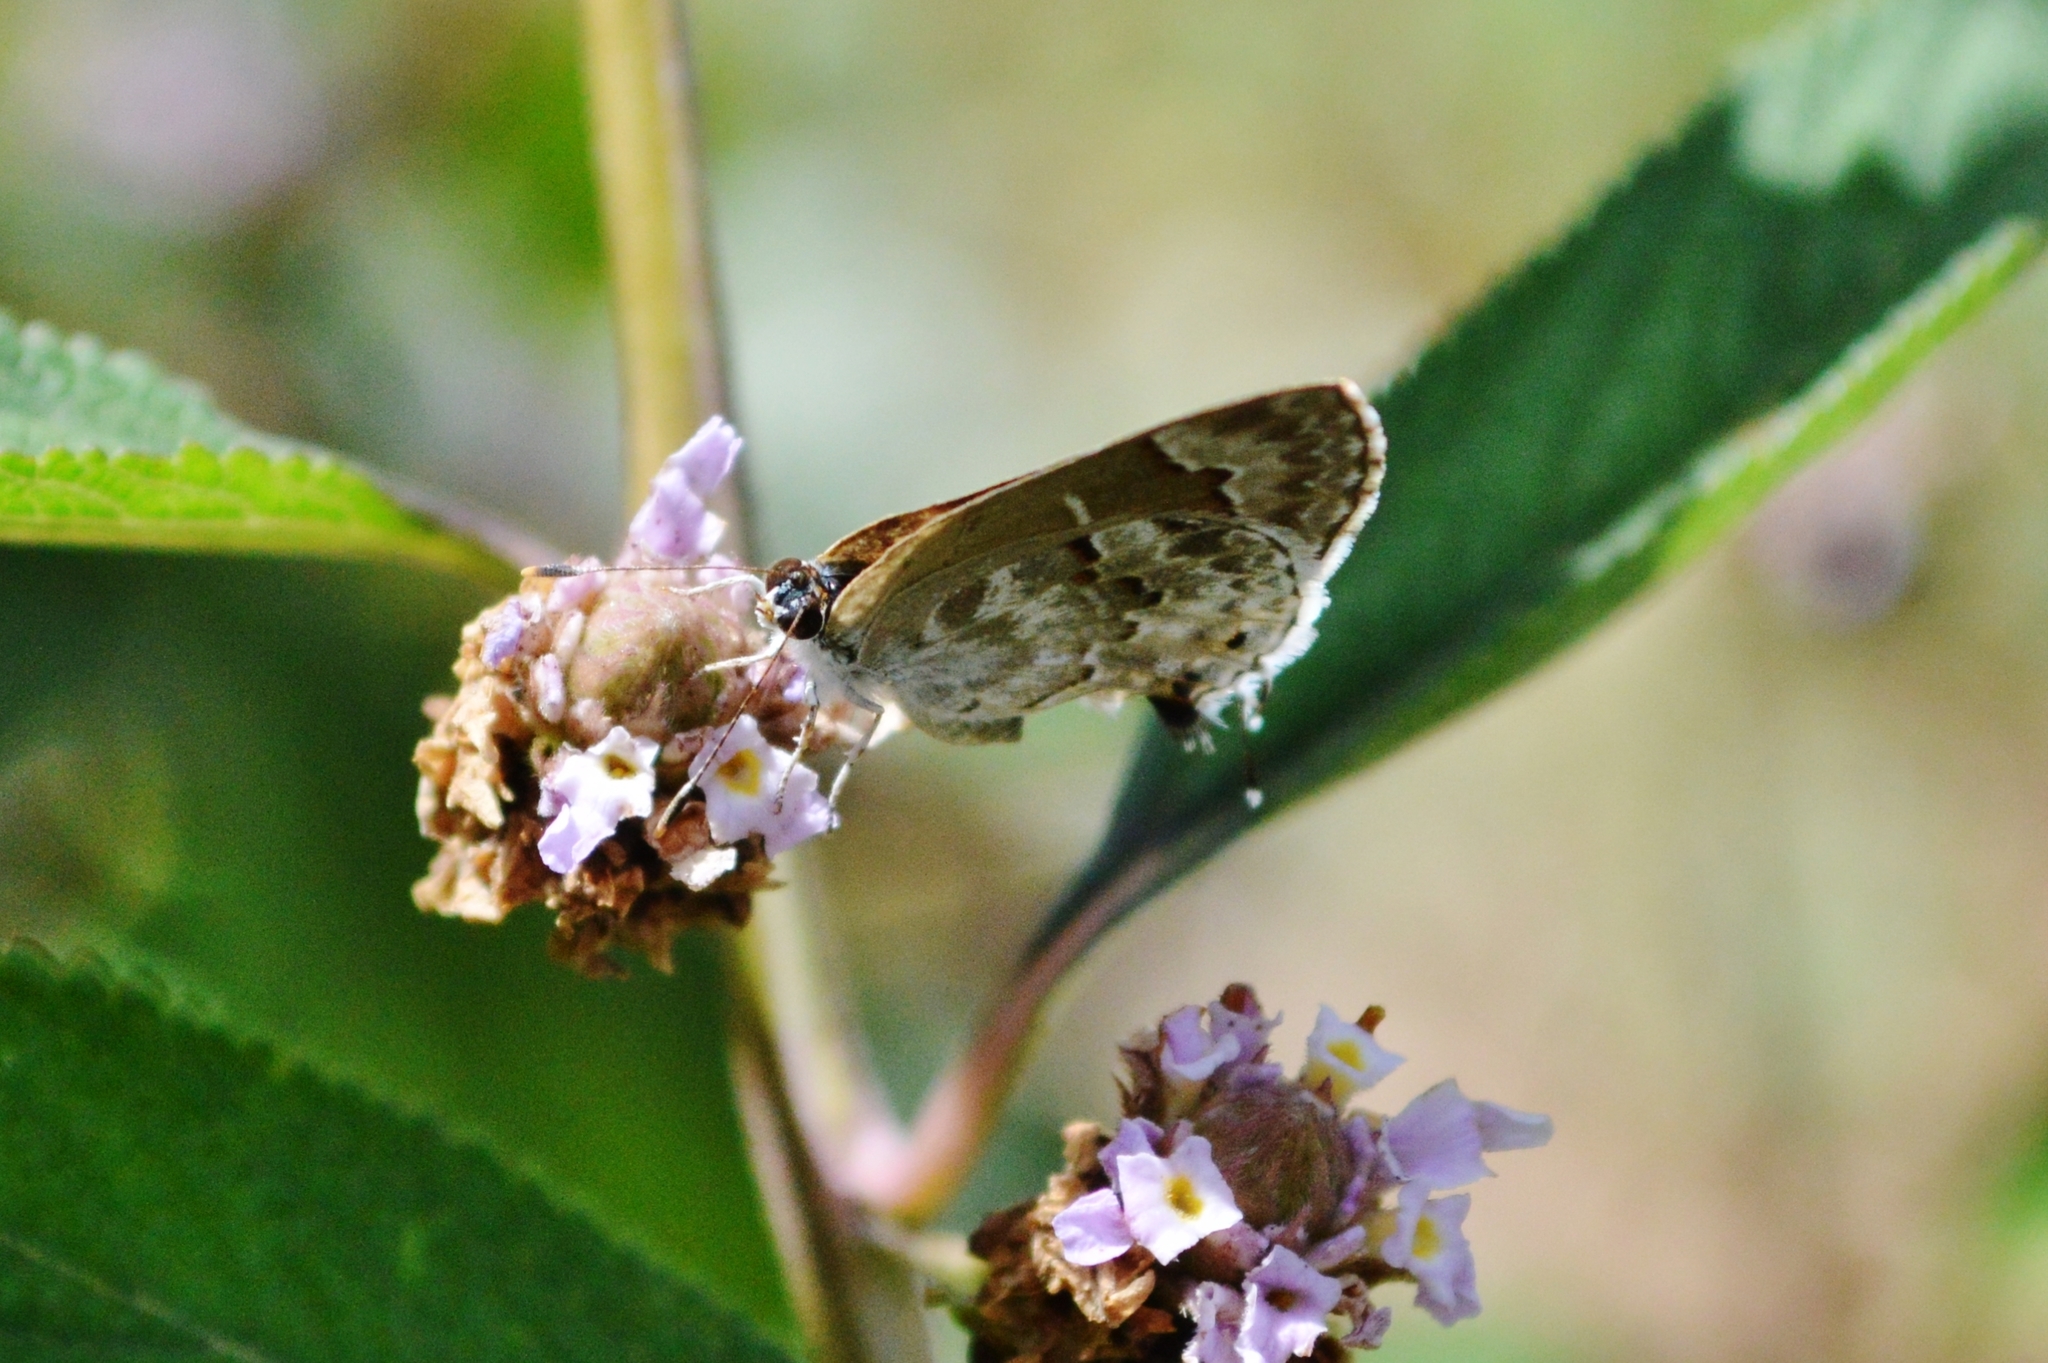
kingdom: Animalia
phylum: Arthropoda
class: Insecta
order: Lepidoptera
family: Lycaenidae
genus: Strymon
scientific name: Strymon mulucha
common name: Mottled scrub-hairstreak
